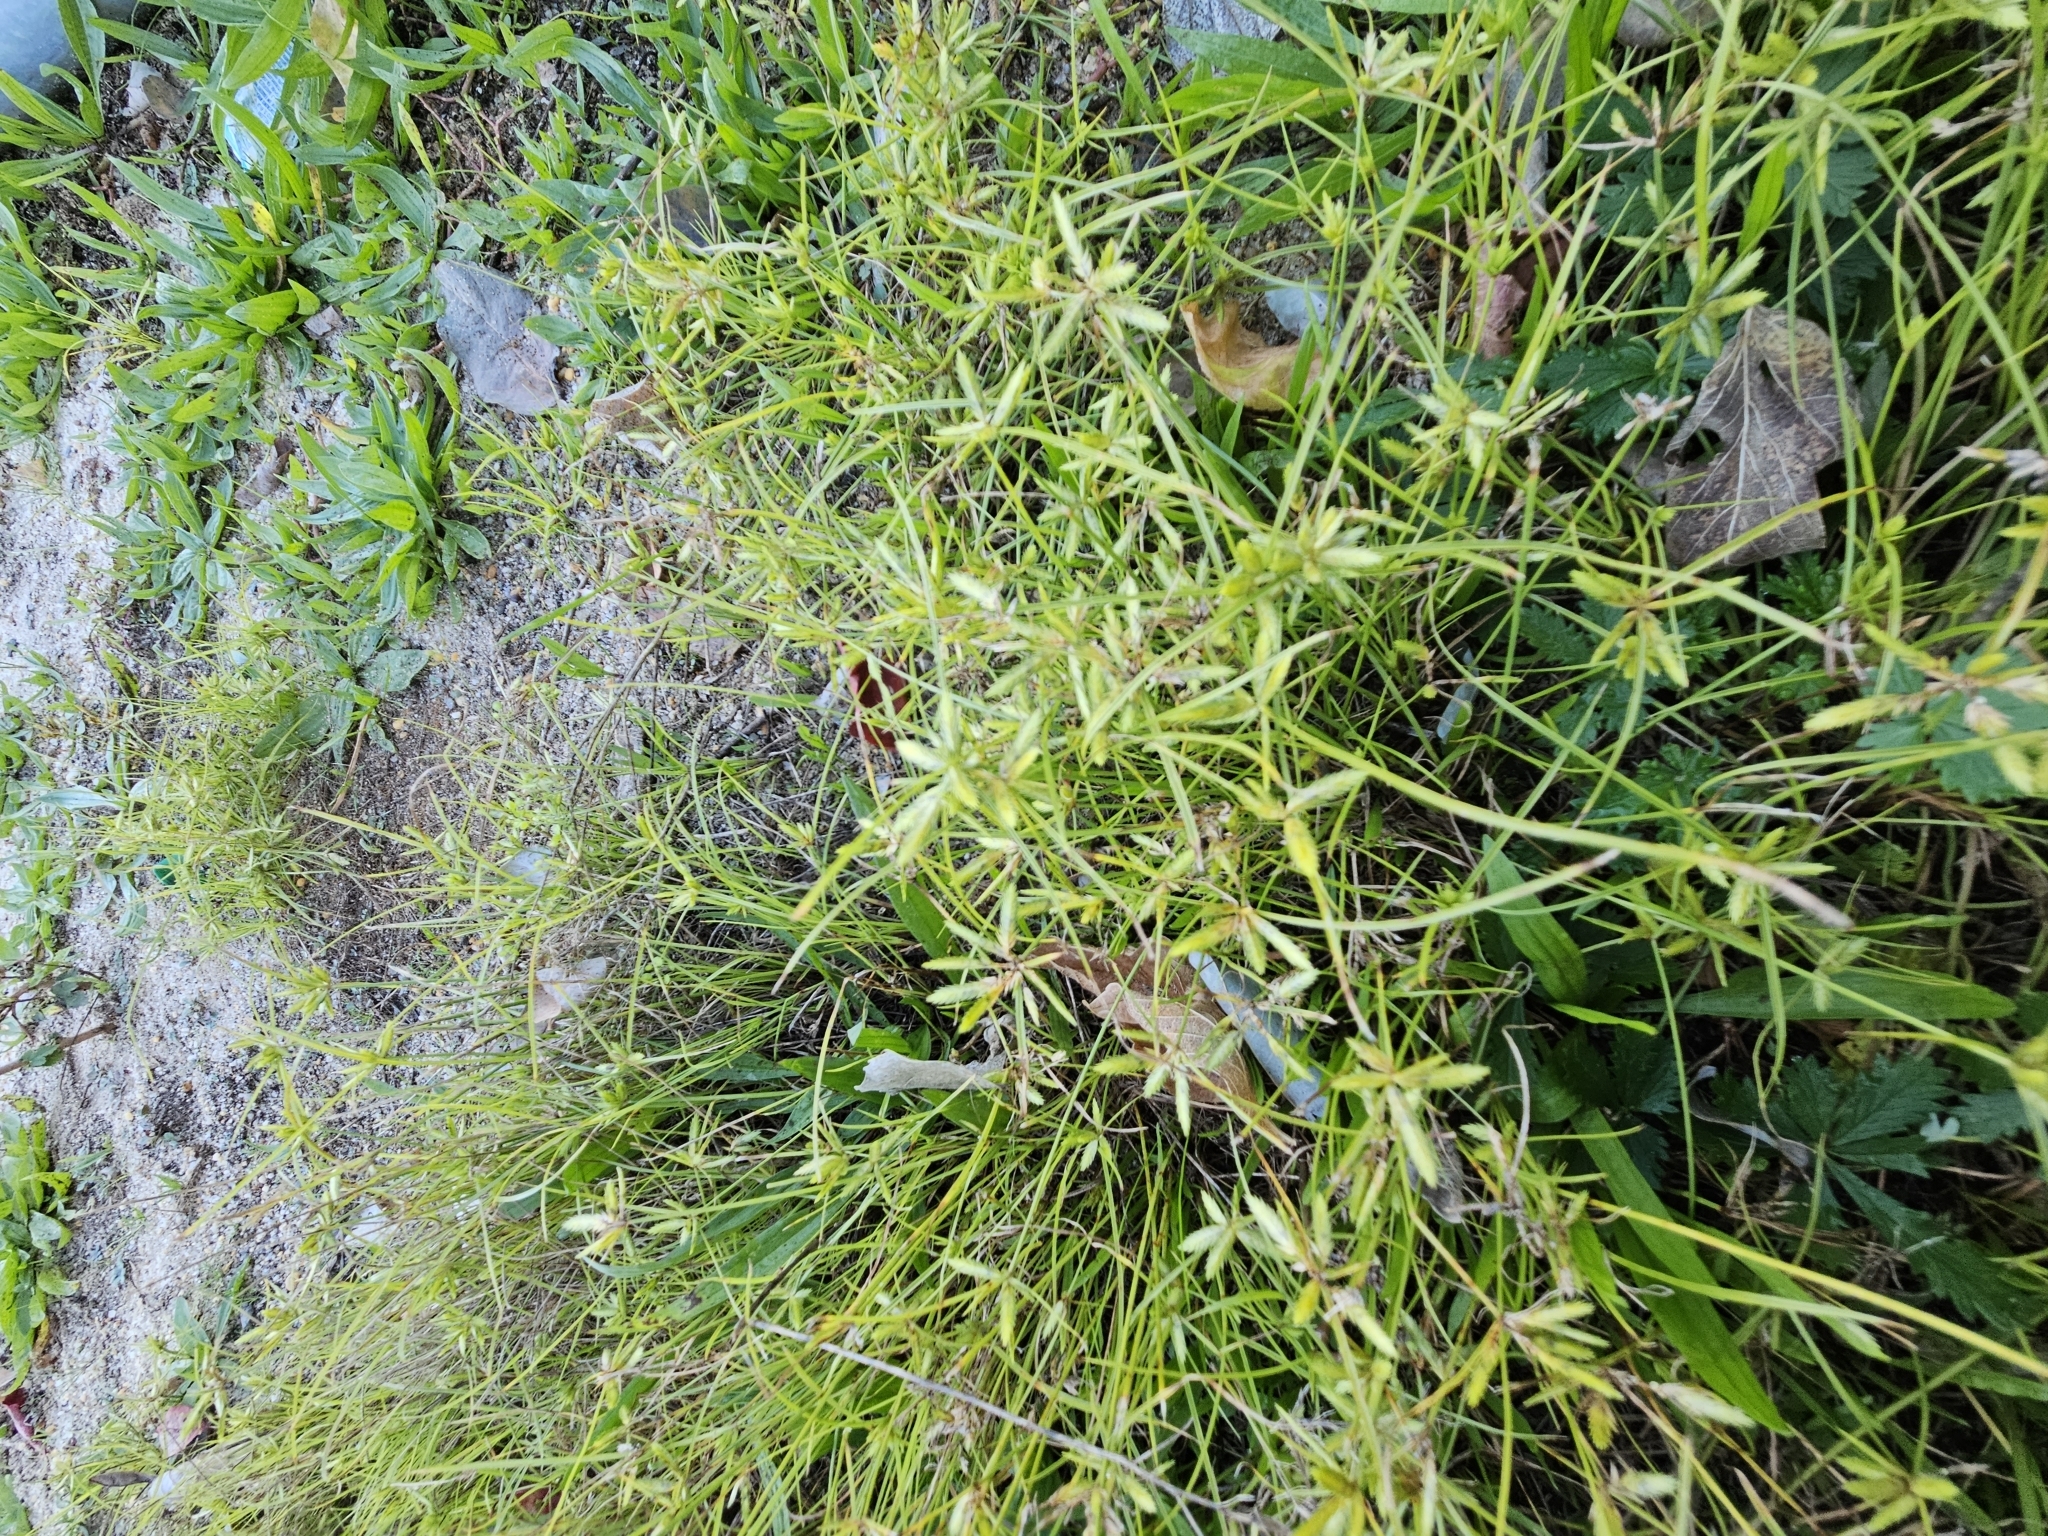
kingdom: Plantae
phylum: Tracheophyta
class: Liliopsida
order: Poales
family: Cyperaceae
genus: Cyperus
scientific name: Cyperus compressus
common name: Poorland flatsedge
